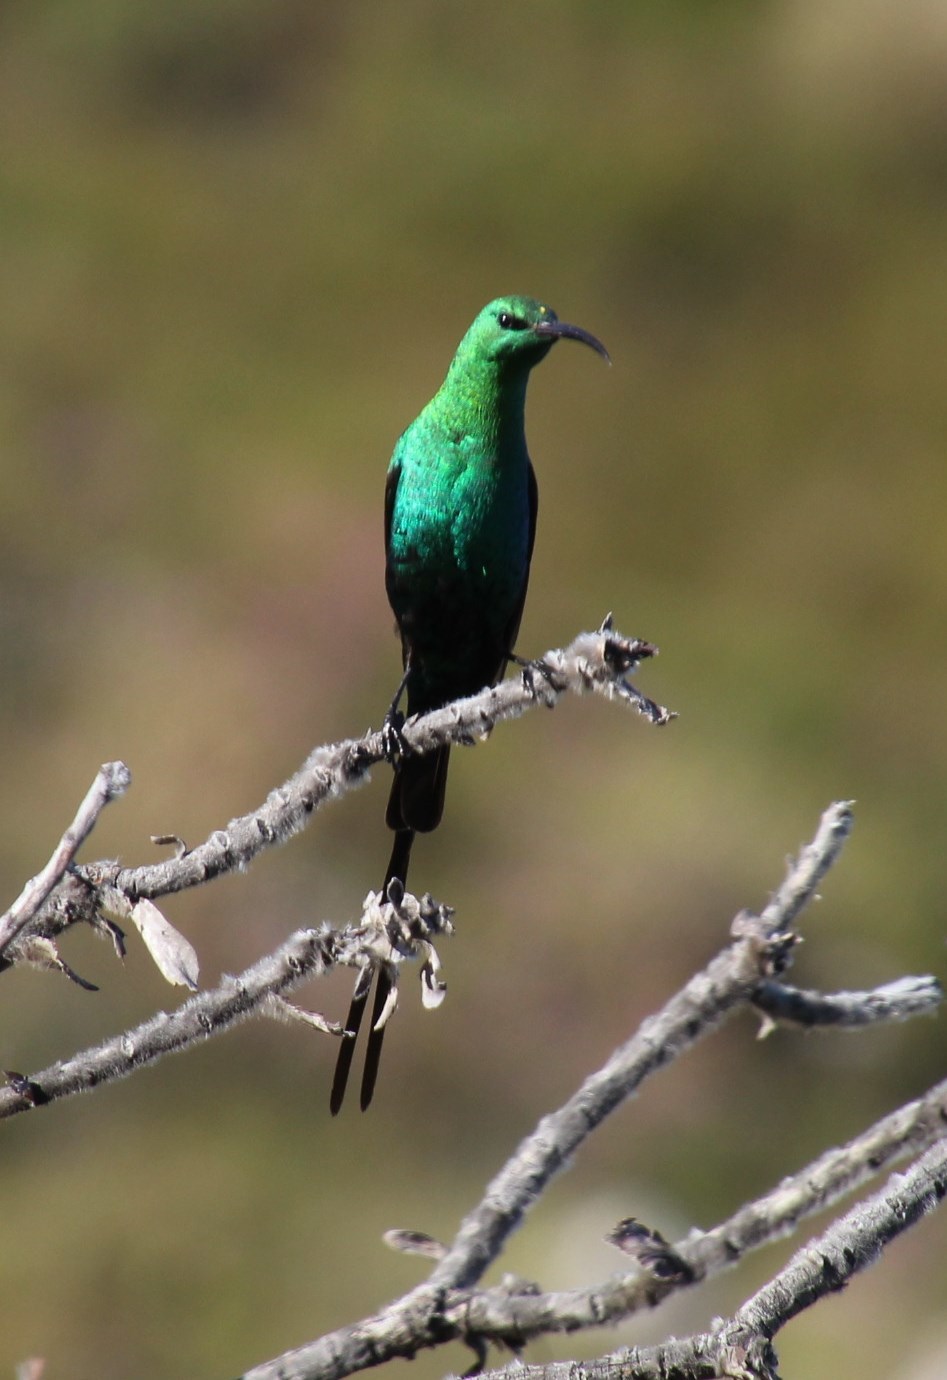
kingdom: Animalia
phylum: Chordata
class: Aves
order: Passeriformes
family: Nectariniidae
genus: Nectarinia
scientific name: Nectarinia famosa
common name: Malachite sunbird
